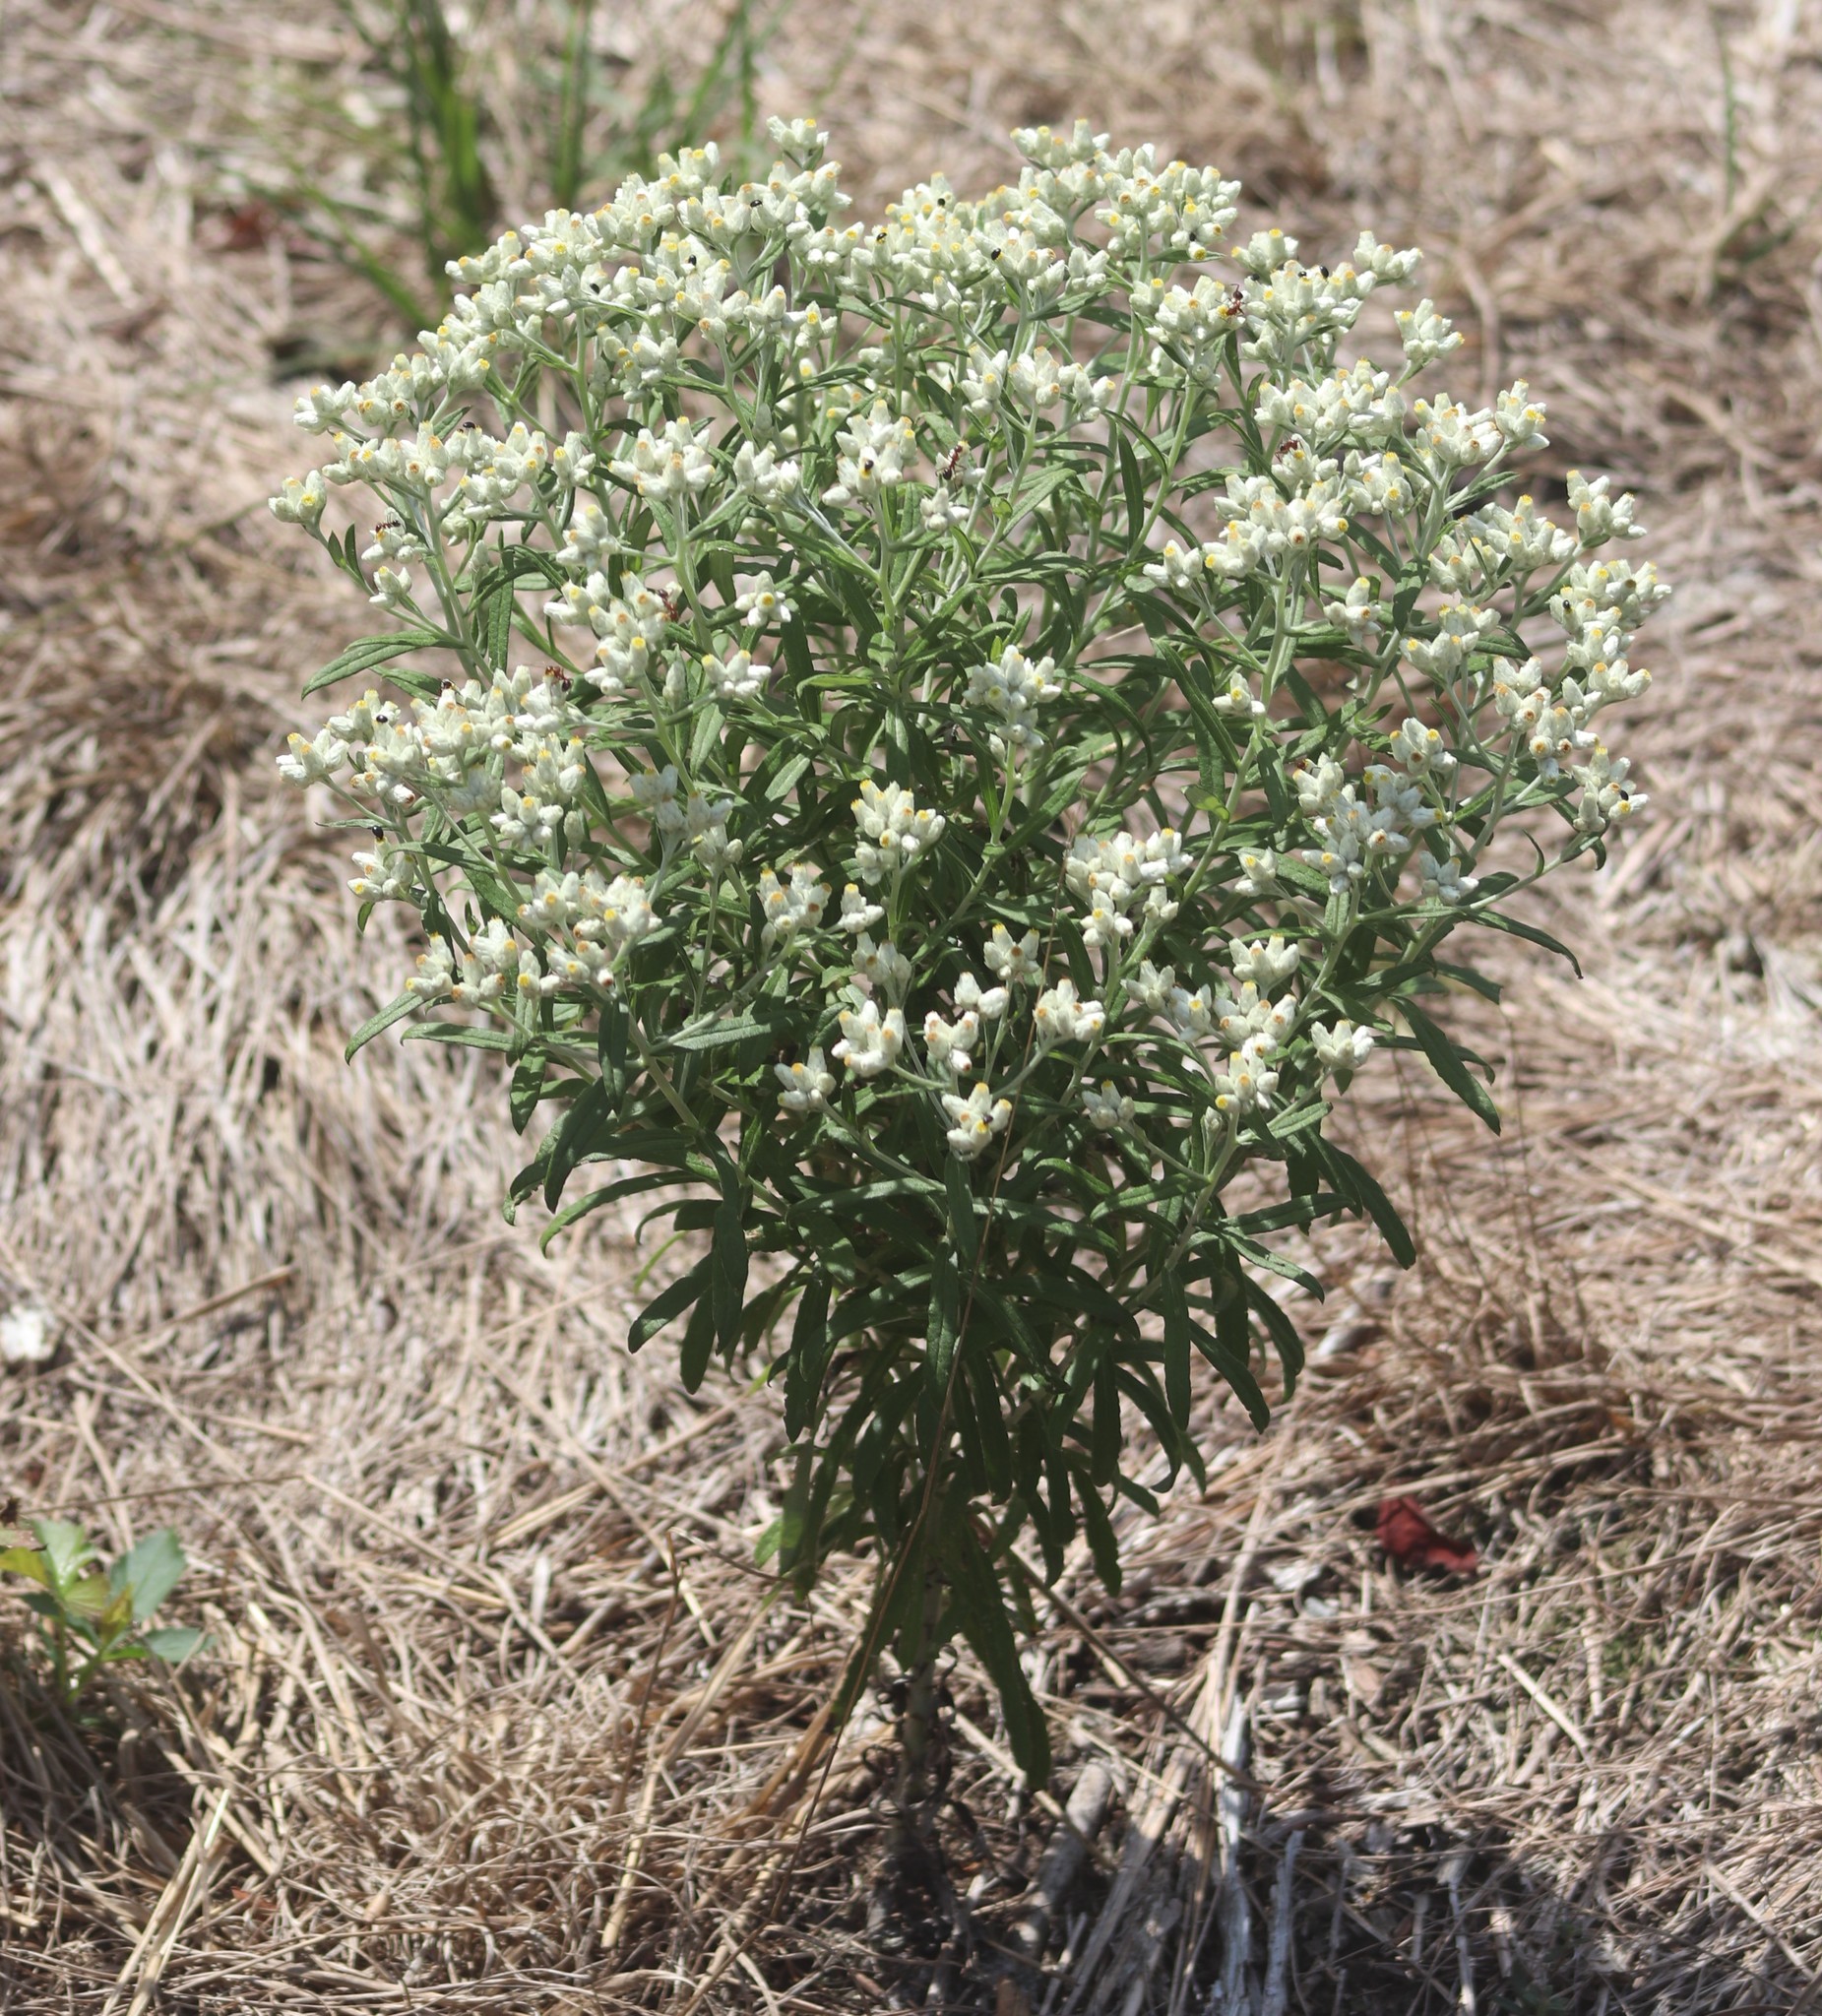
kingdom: Plantae
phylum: Tracheophyta
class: Magnoliopsida
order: Asterales
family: Asteraceae
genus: Pseudognaphalium
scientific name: Pseudognaphalium obtusifolium
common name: Eastern rabbit-tobacco
